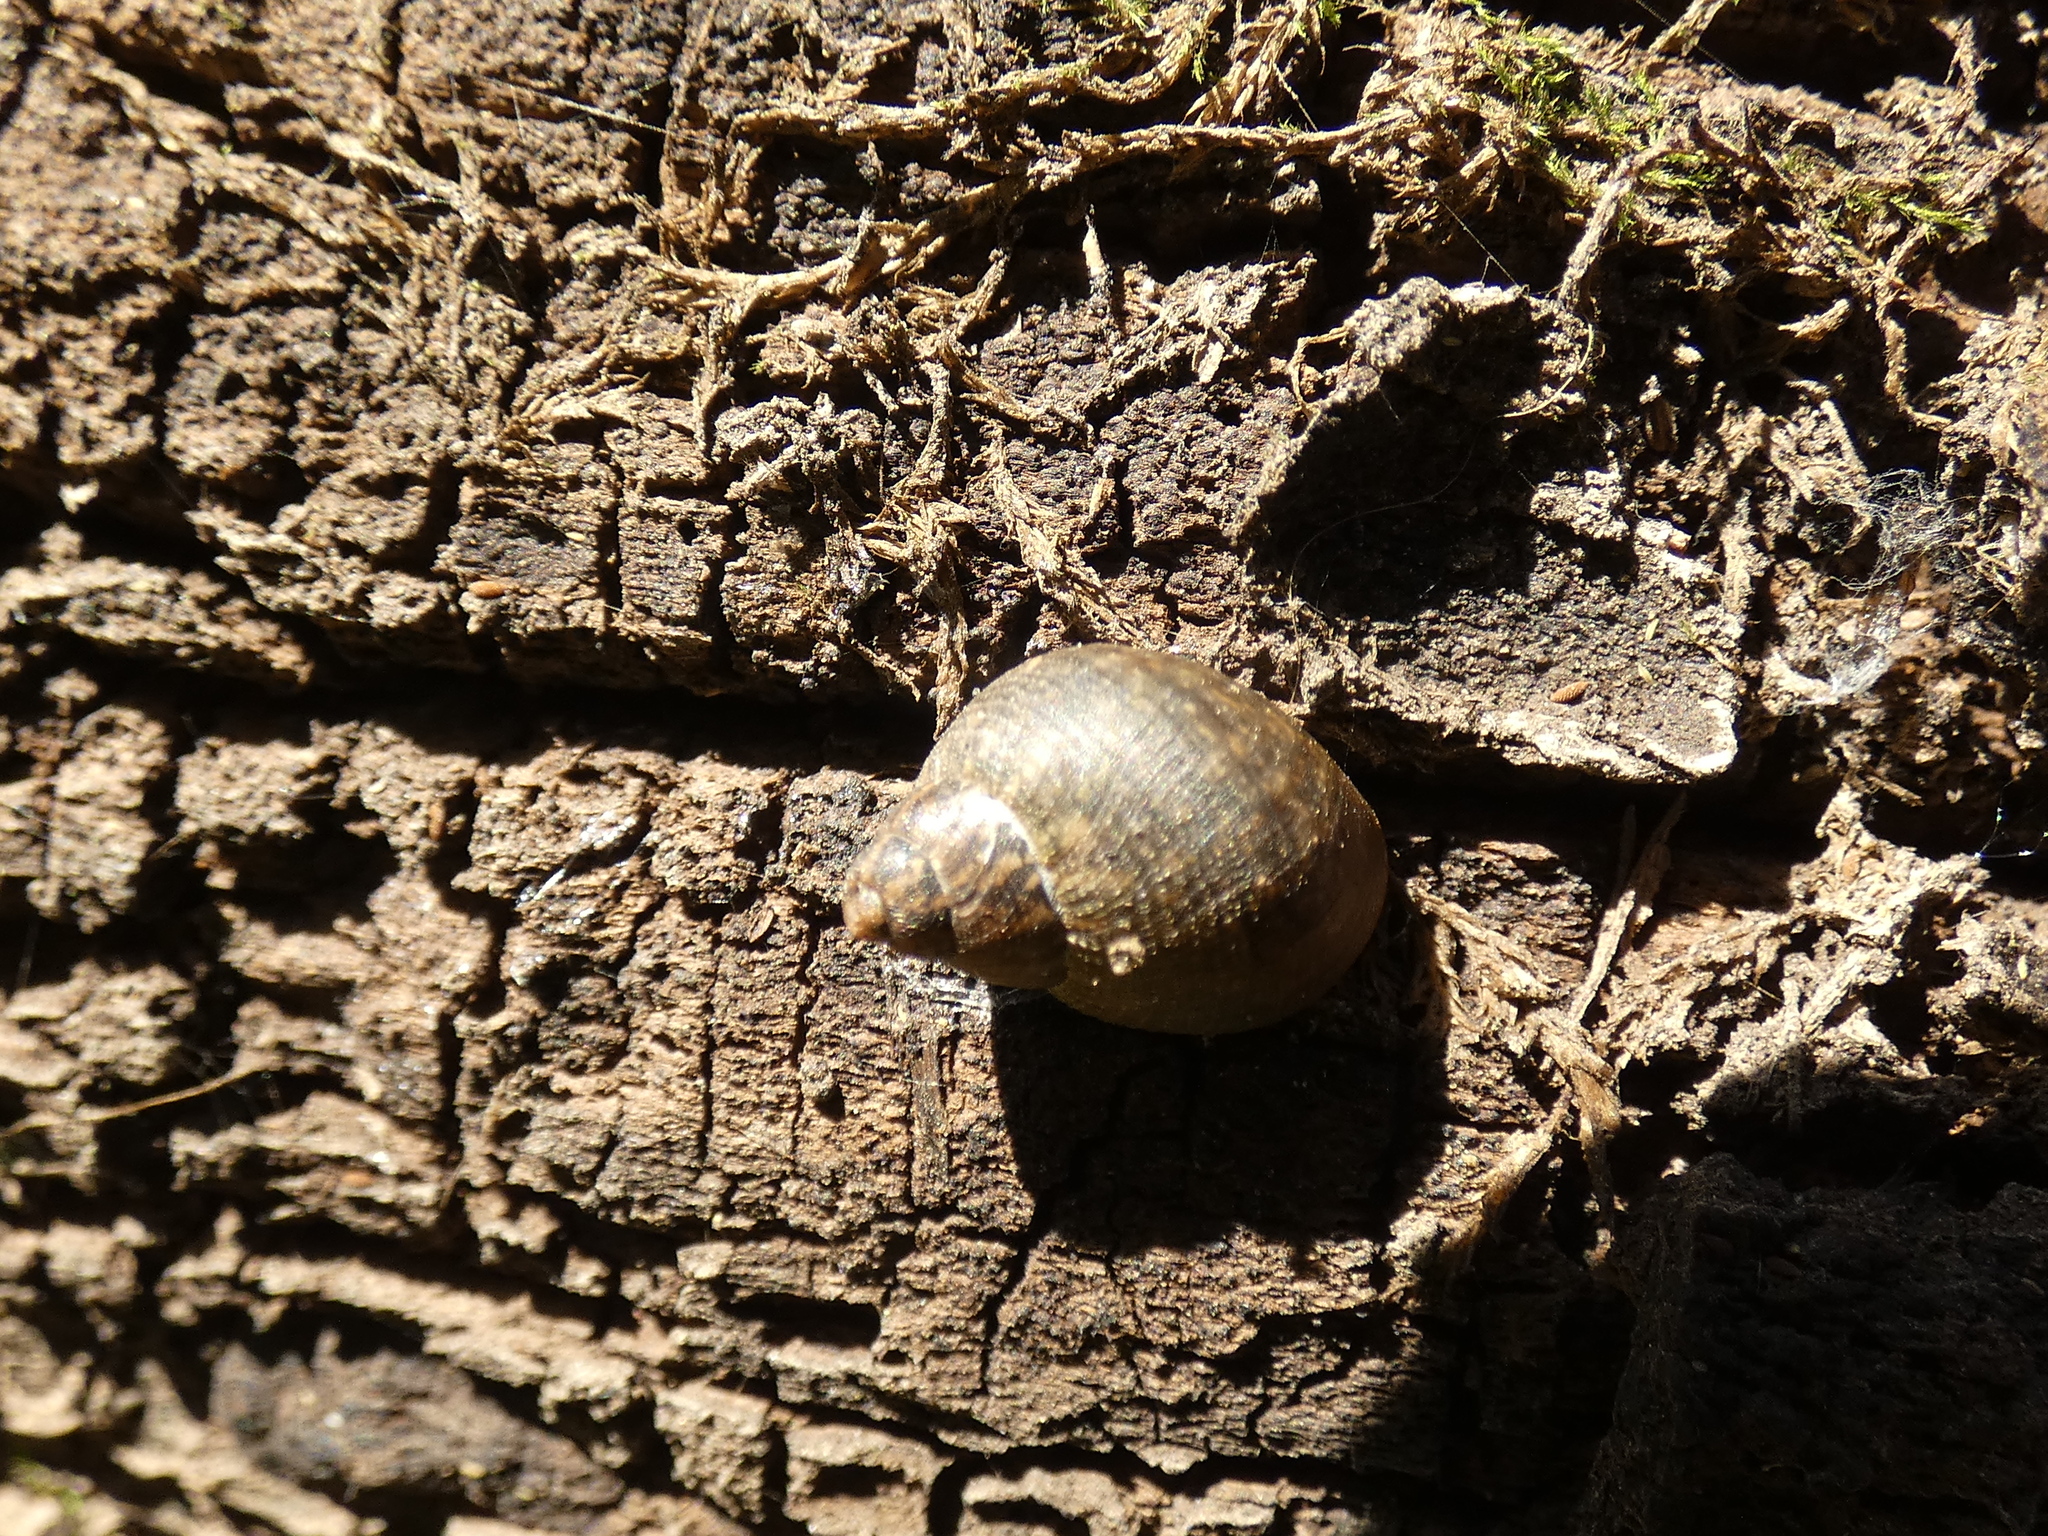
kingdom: Animalia
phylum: Mollusca
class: Gastropoda
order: Stylommatophora
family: Bothriembryontidae
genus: Plectostylus
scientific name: Plectostylus
